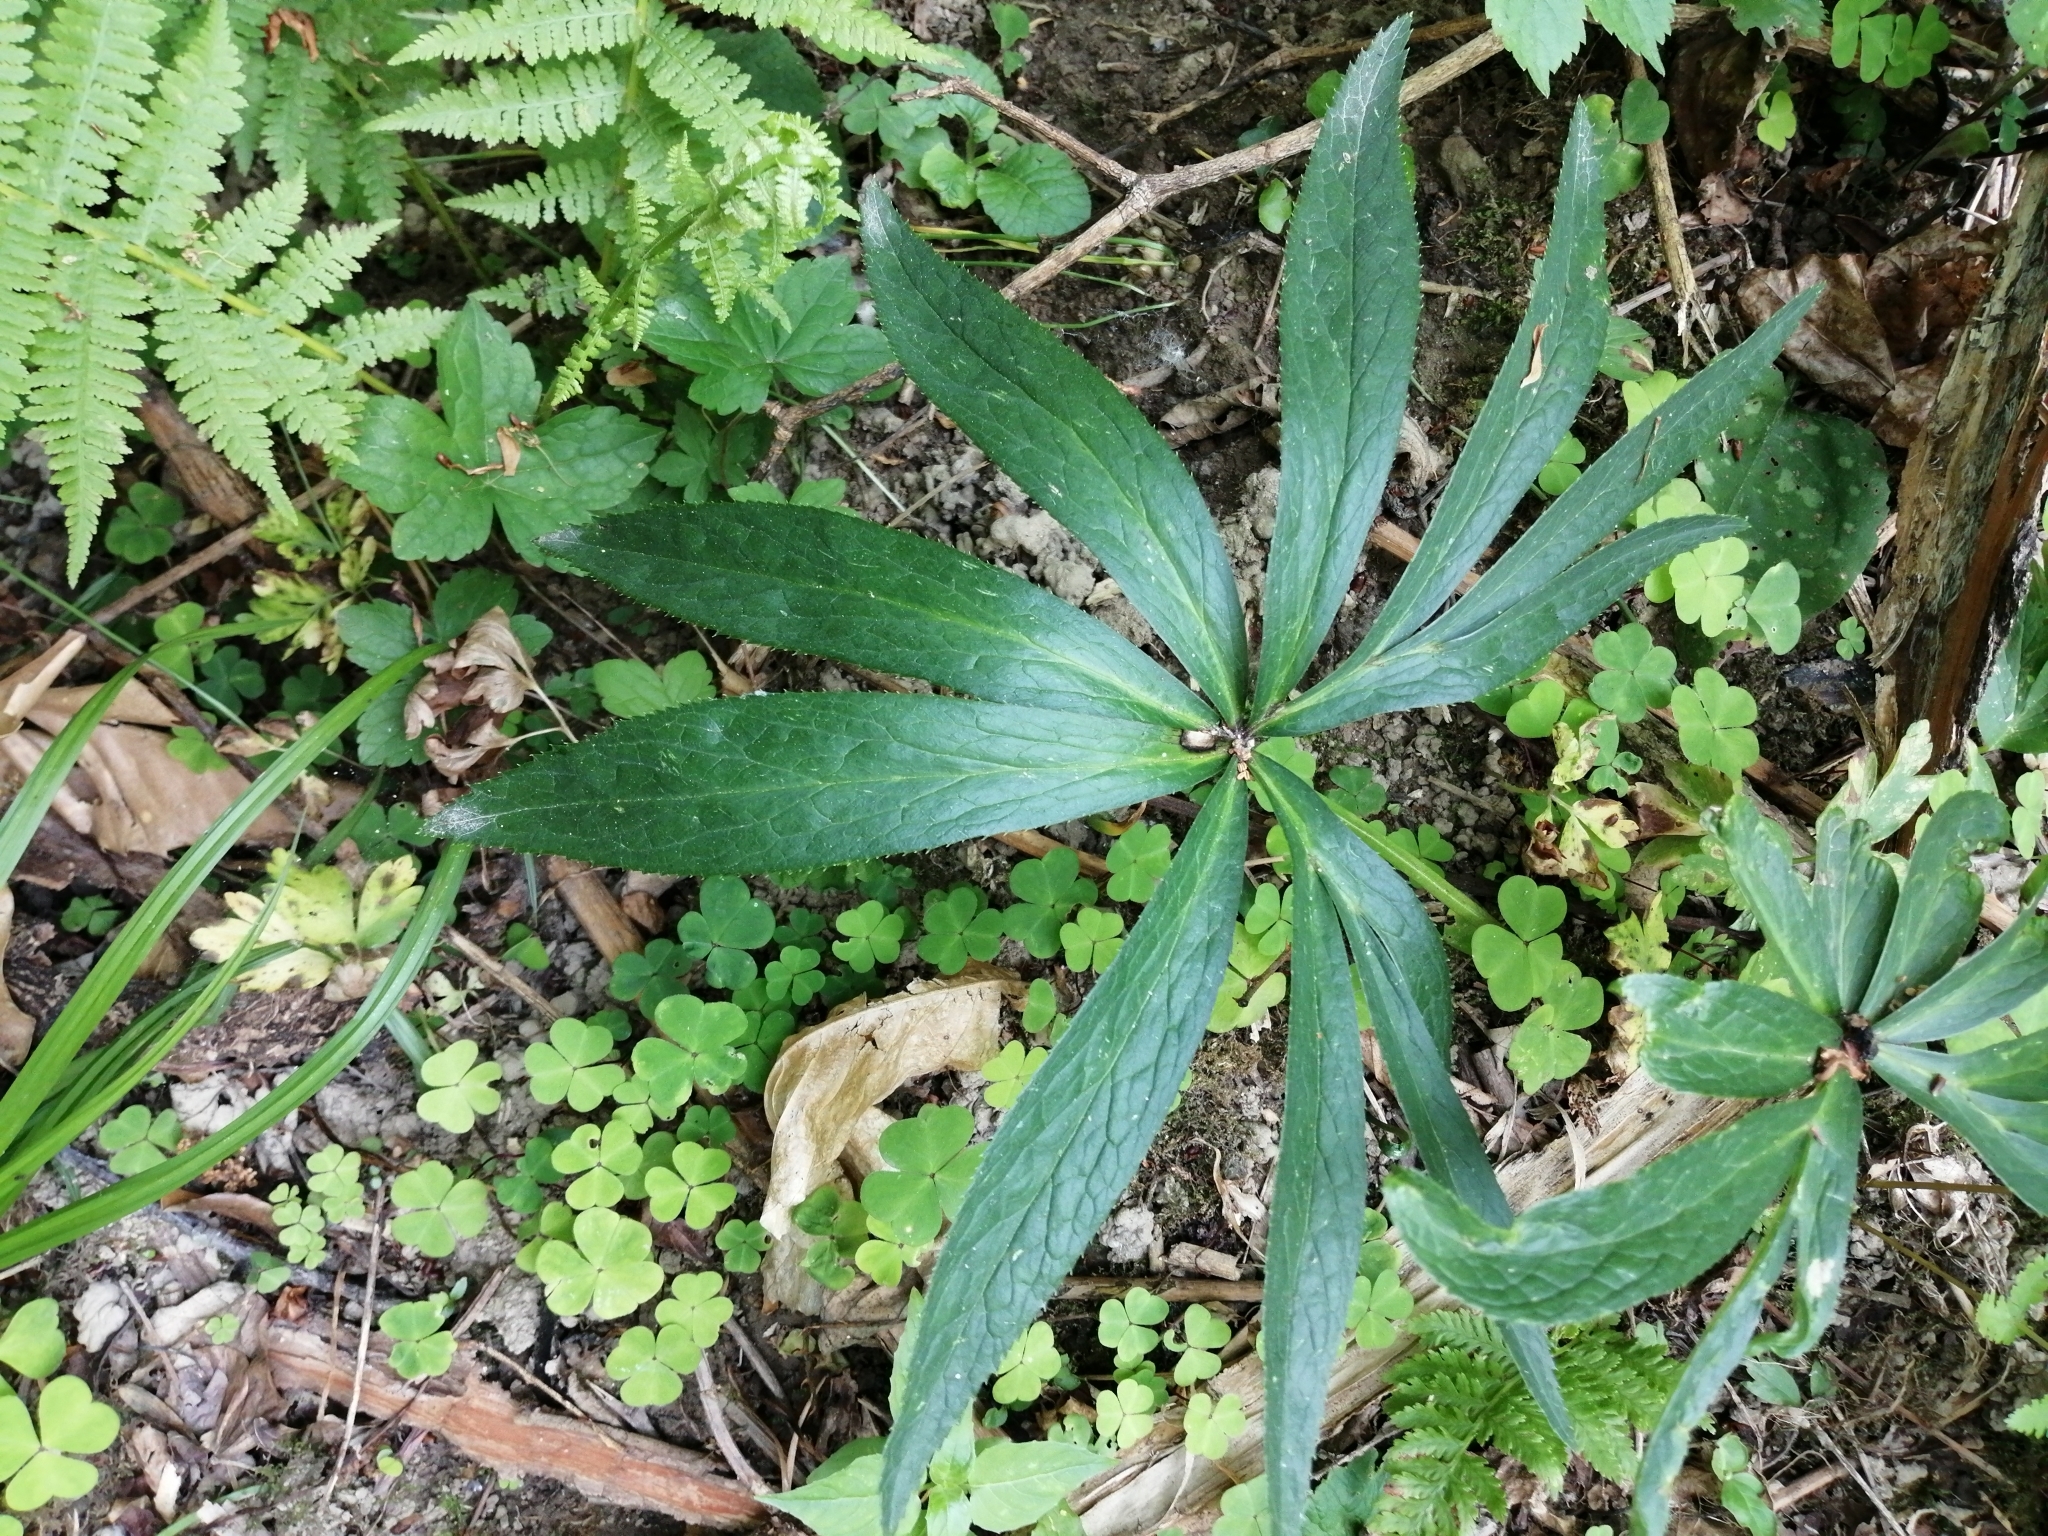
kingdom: Plantae
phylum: Tracheophyta
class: Magnoliopsida
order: Ranunculales
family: Ranunculaceae
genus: Helleborus
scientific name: Helleborus viridis
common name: Green hellebore
